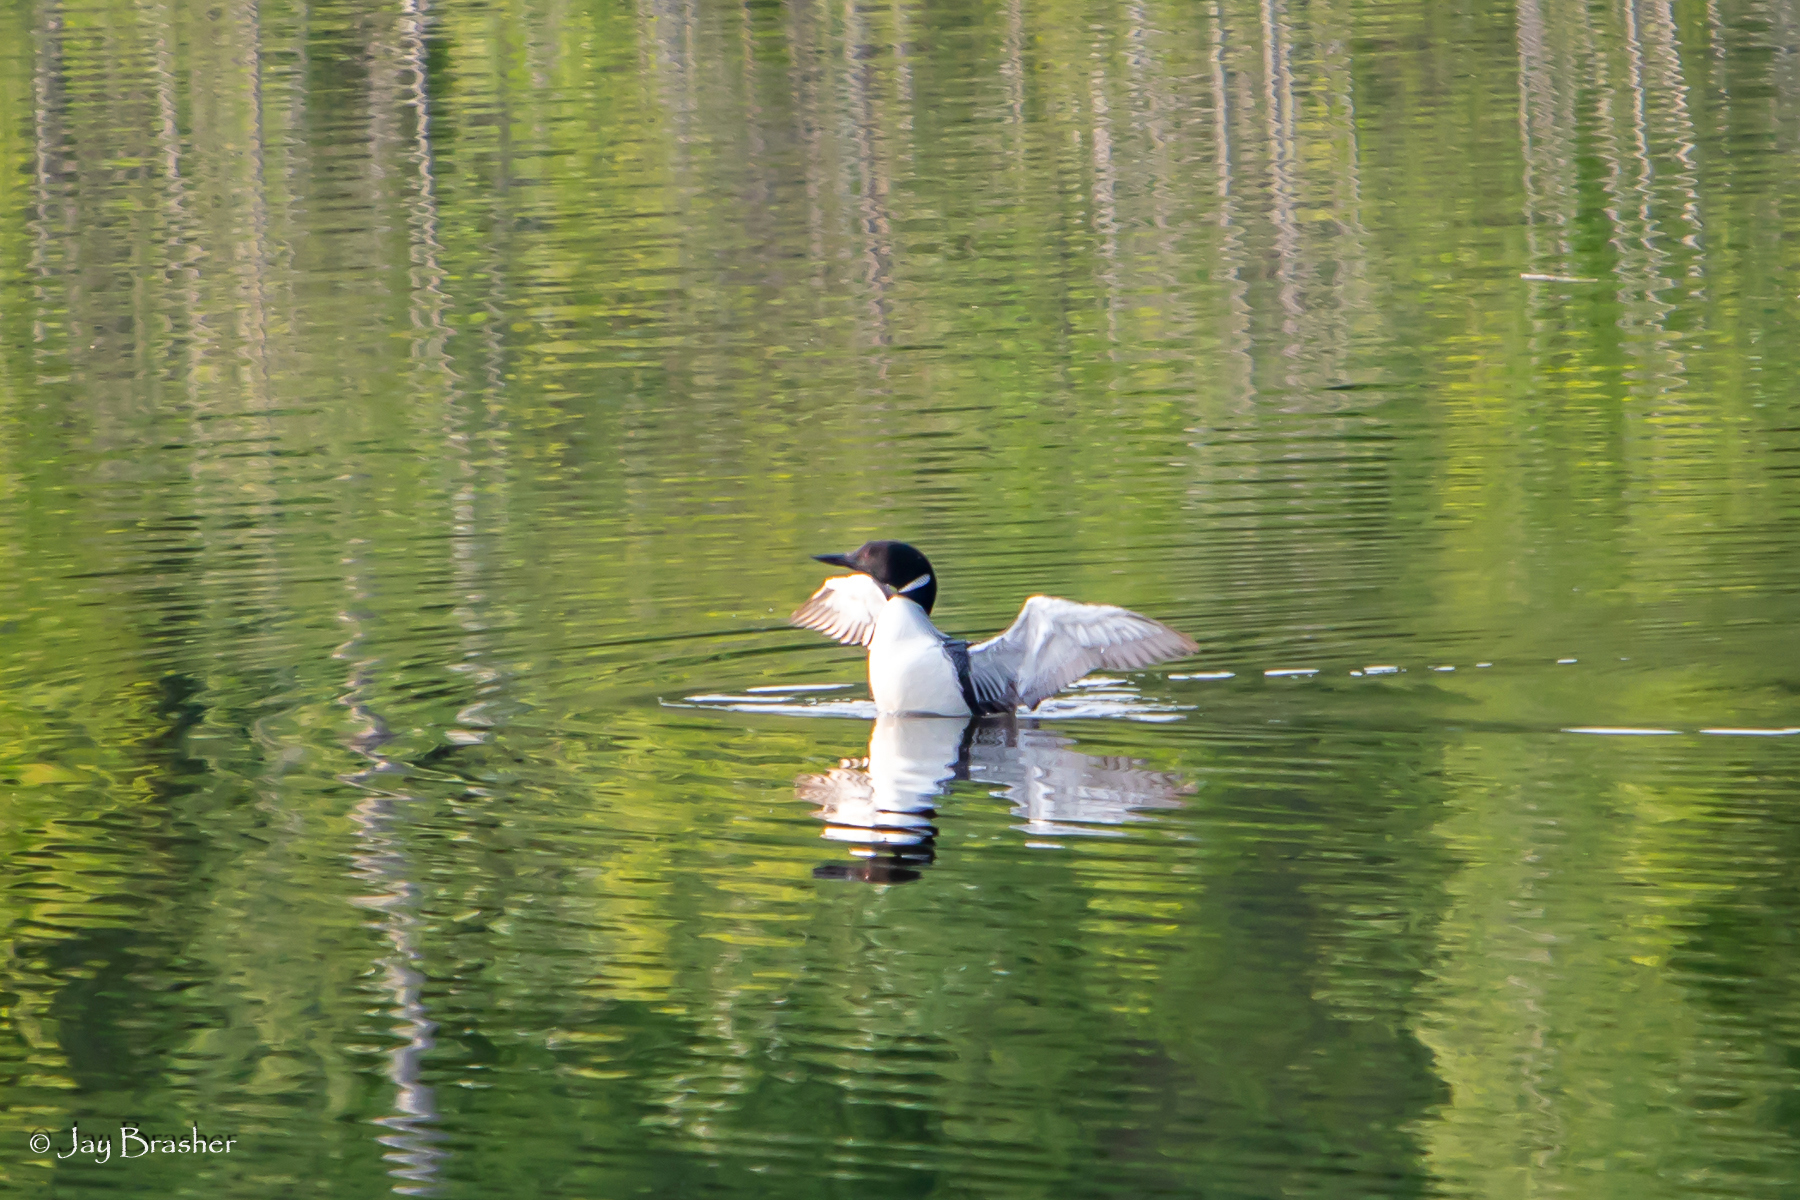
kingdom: Animalia
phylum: Chordata
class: Aves
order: Gaviiformes
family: Gaviidae
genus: Gavia
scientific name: Gavia immer
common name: Common loon
